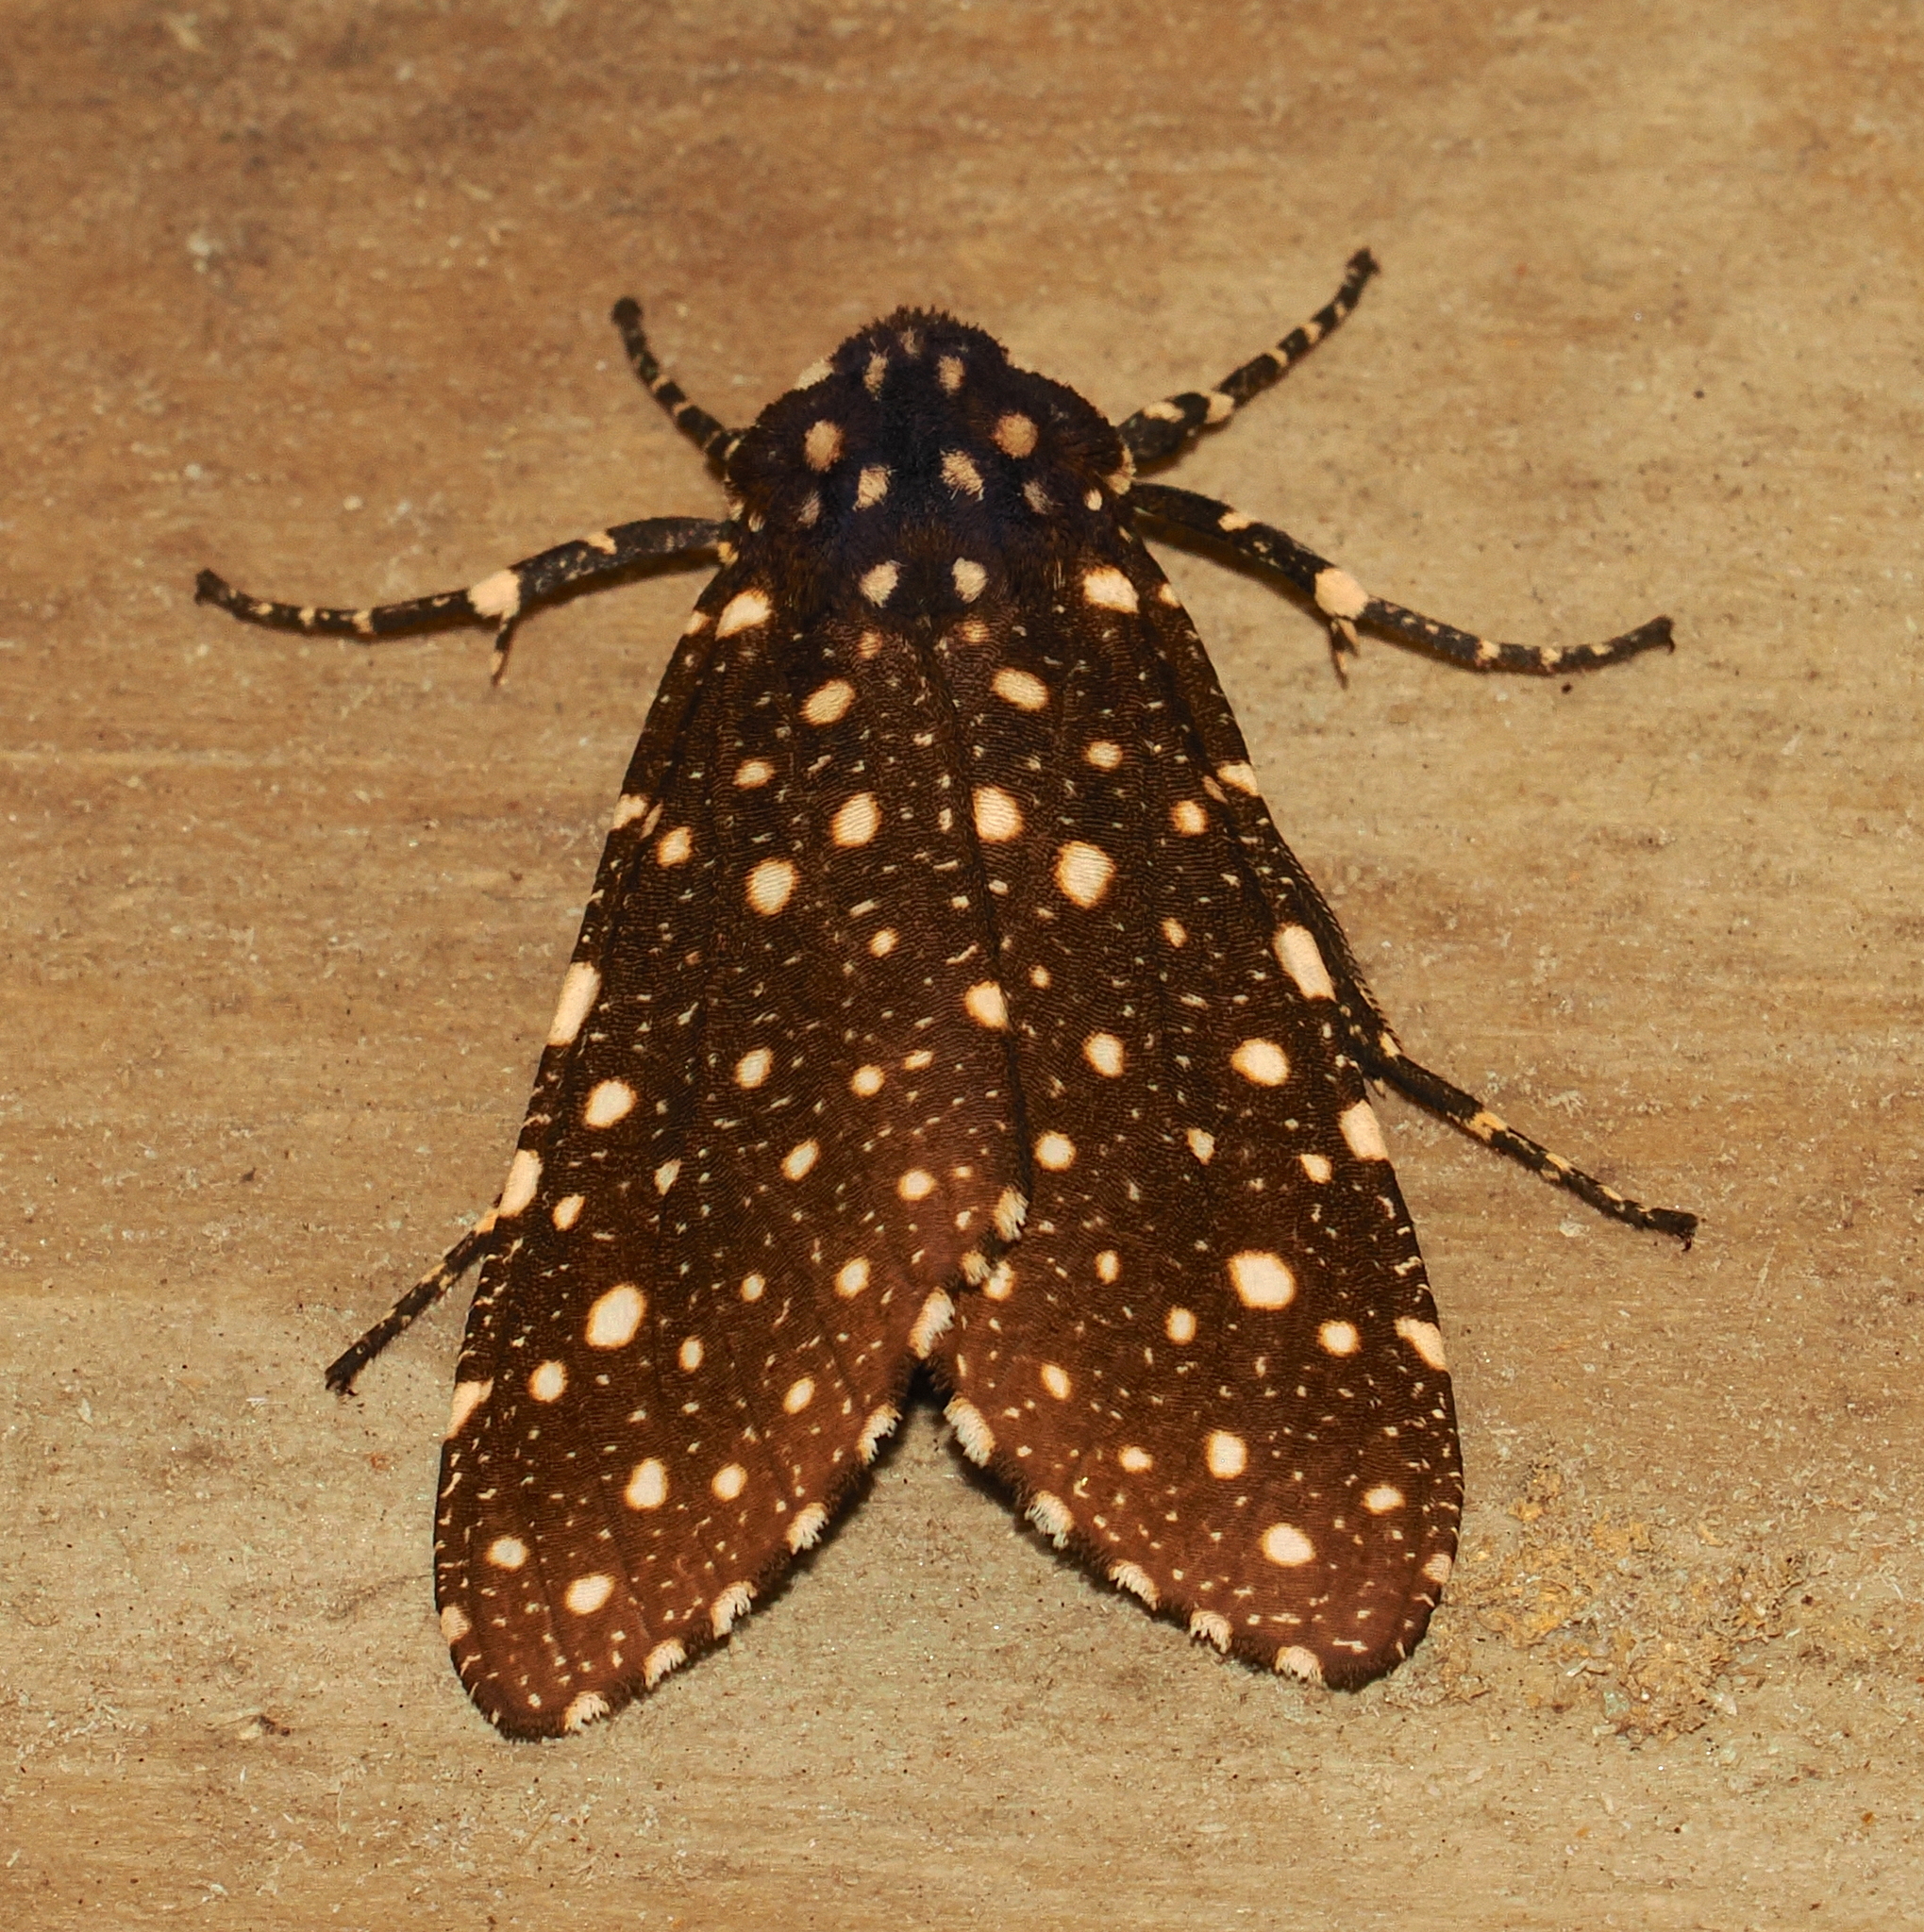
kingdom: Animalia
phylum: Arthropoda
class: Insecta
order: Lepidoptera
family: Erebidae
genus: Bernathonomus
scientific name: Bernathonomus piperita
